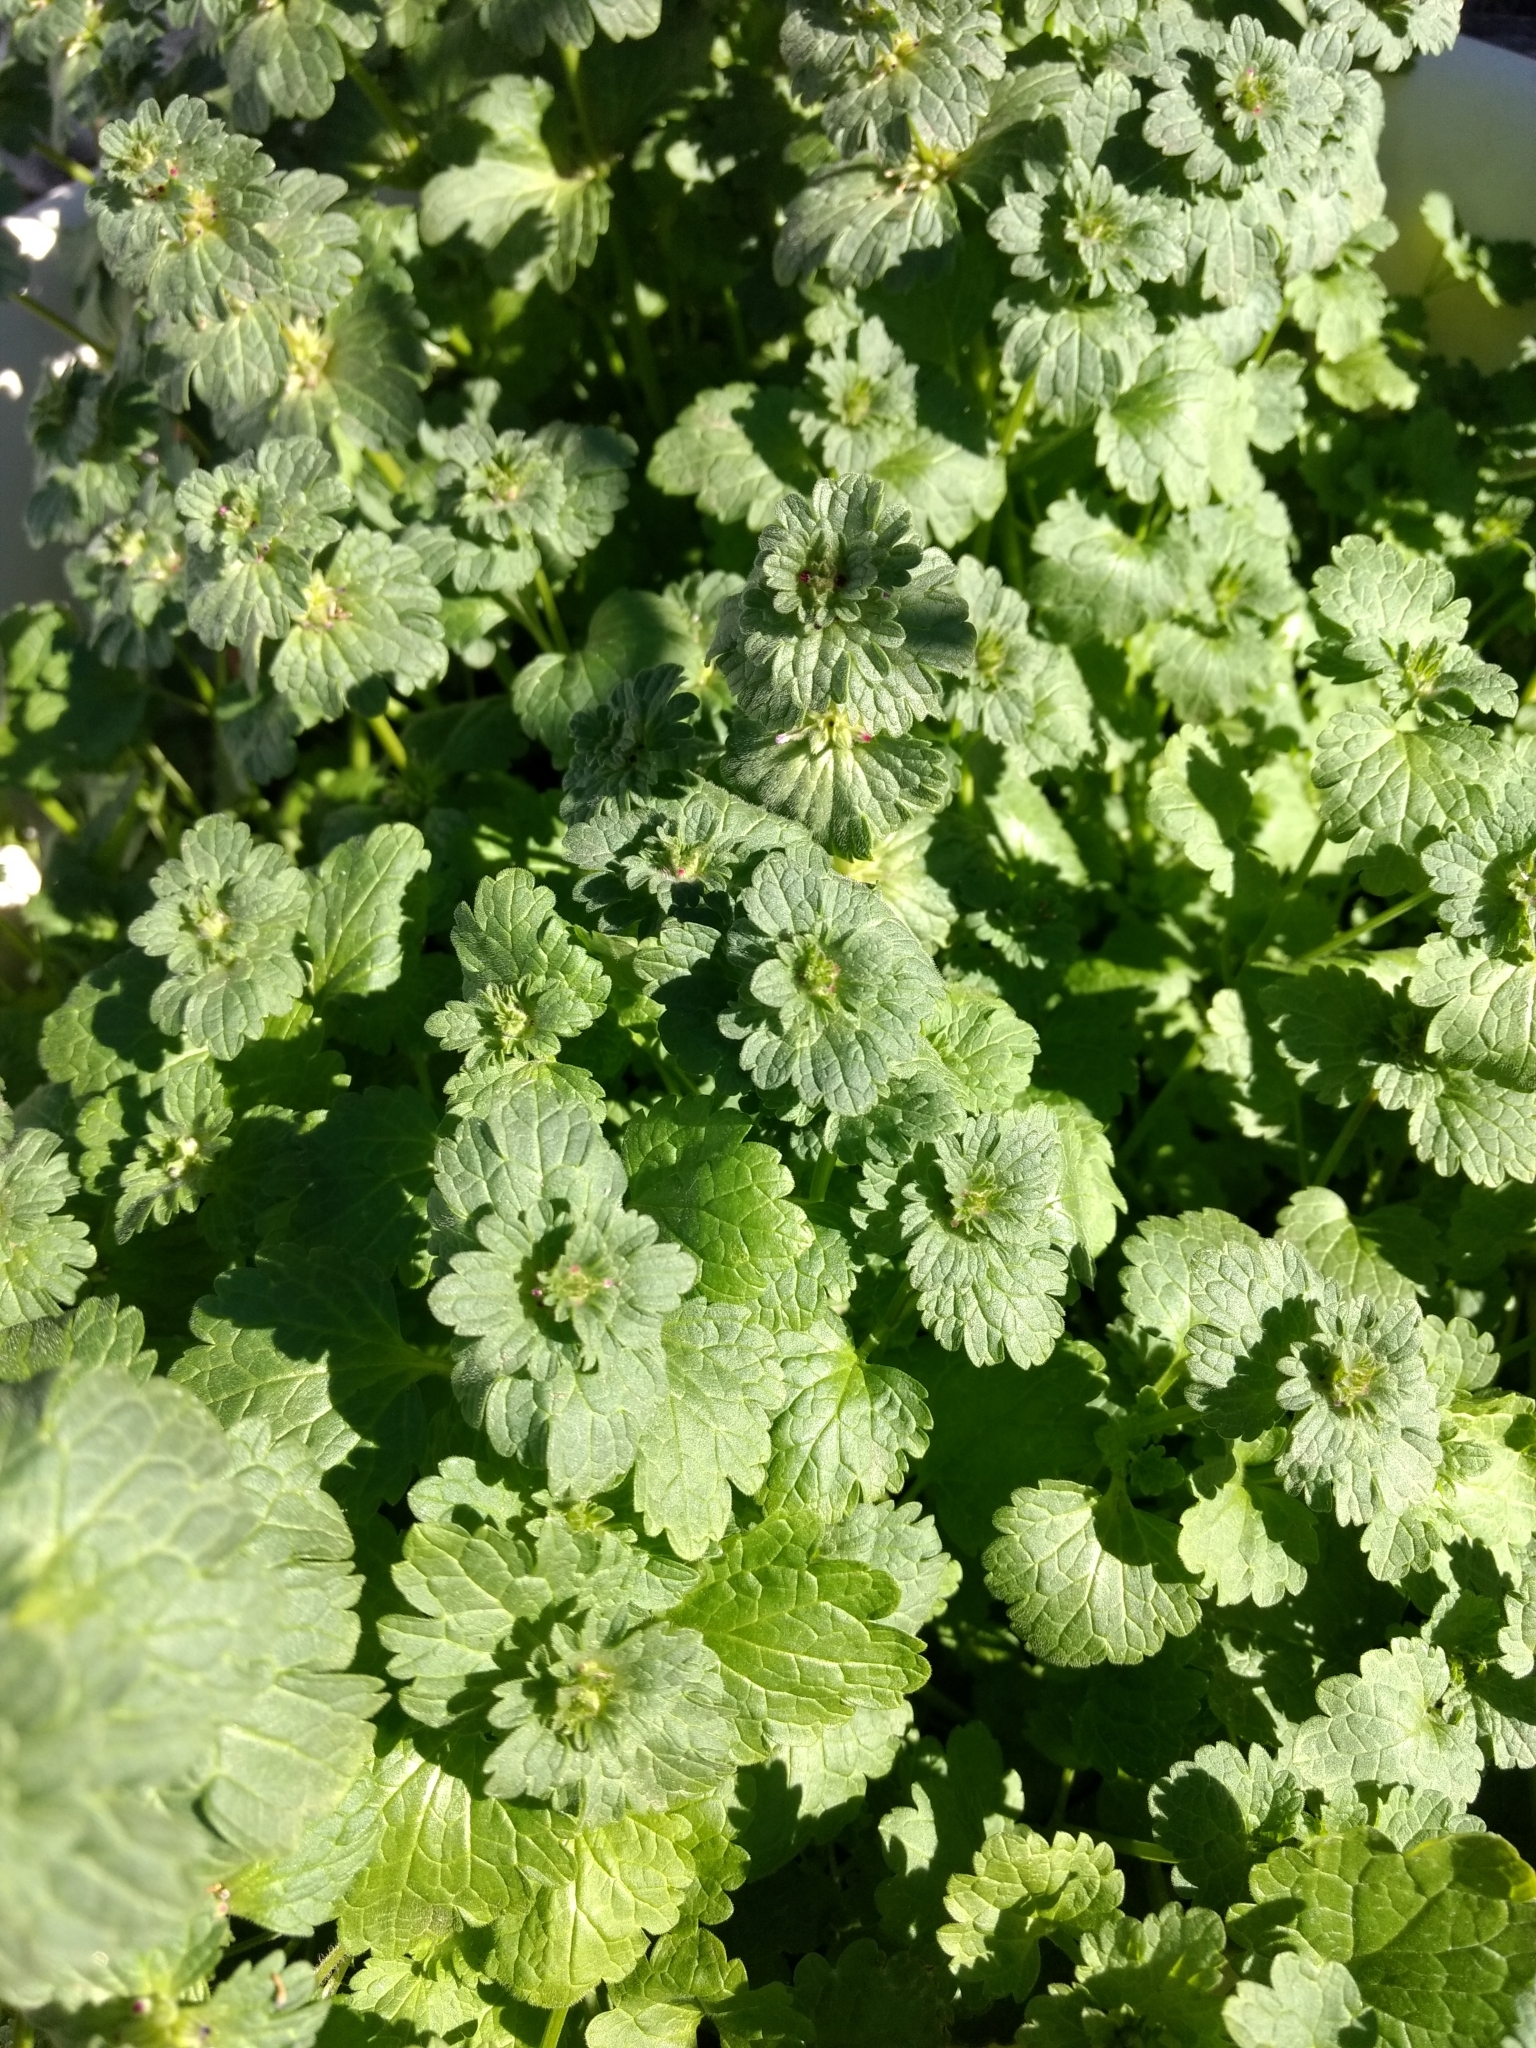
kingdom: Plantae
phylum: Tracheophyta
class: Magnoliopsida
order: Lamiales
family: Lamiaceae
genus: Lamium
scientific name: Lamium amplexicaule
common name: Henbit dead-nettle
